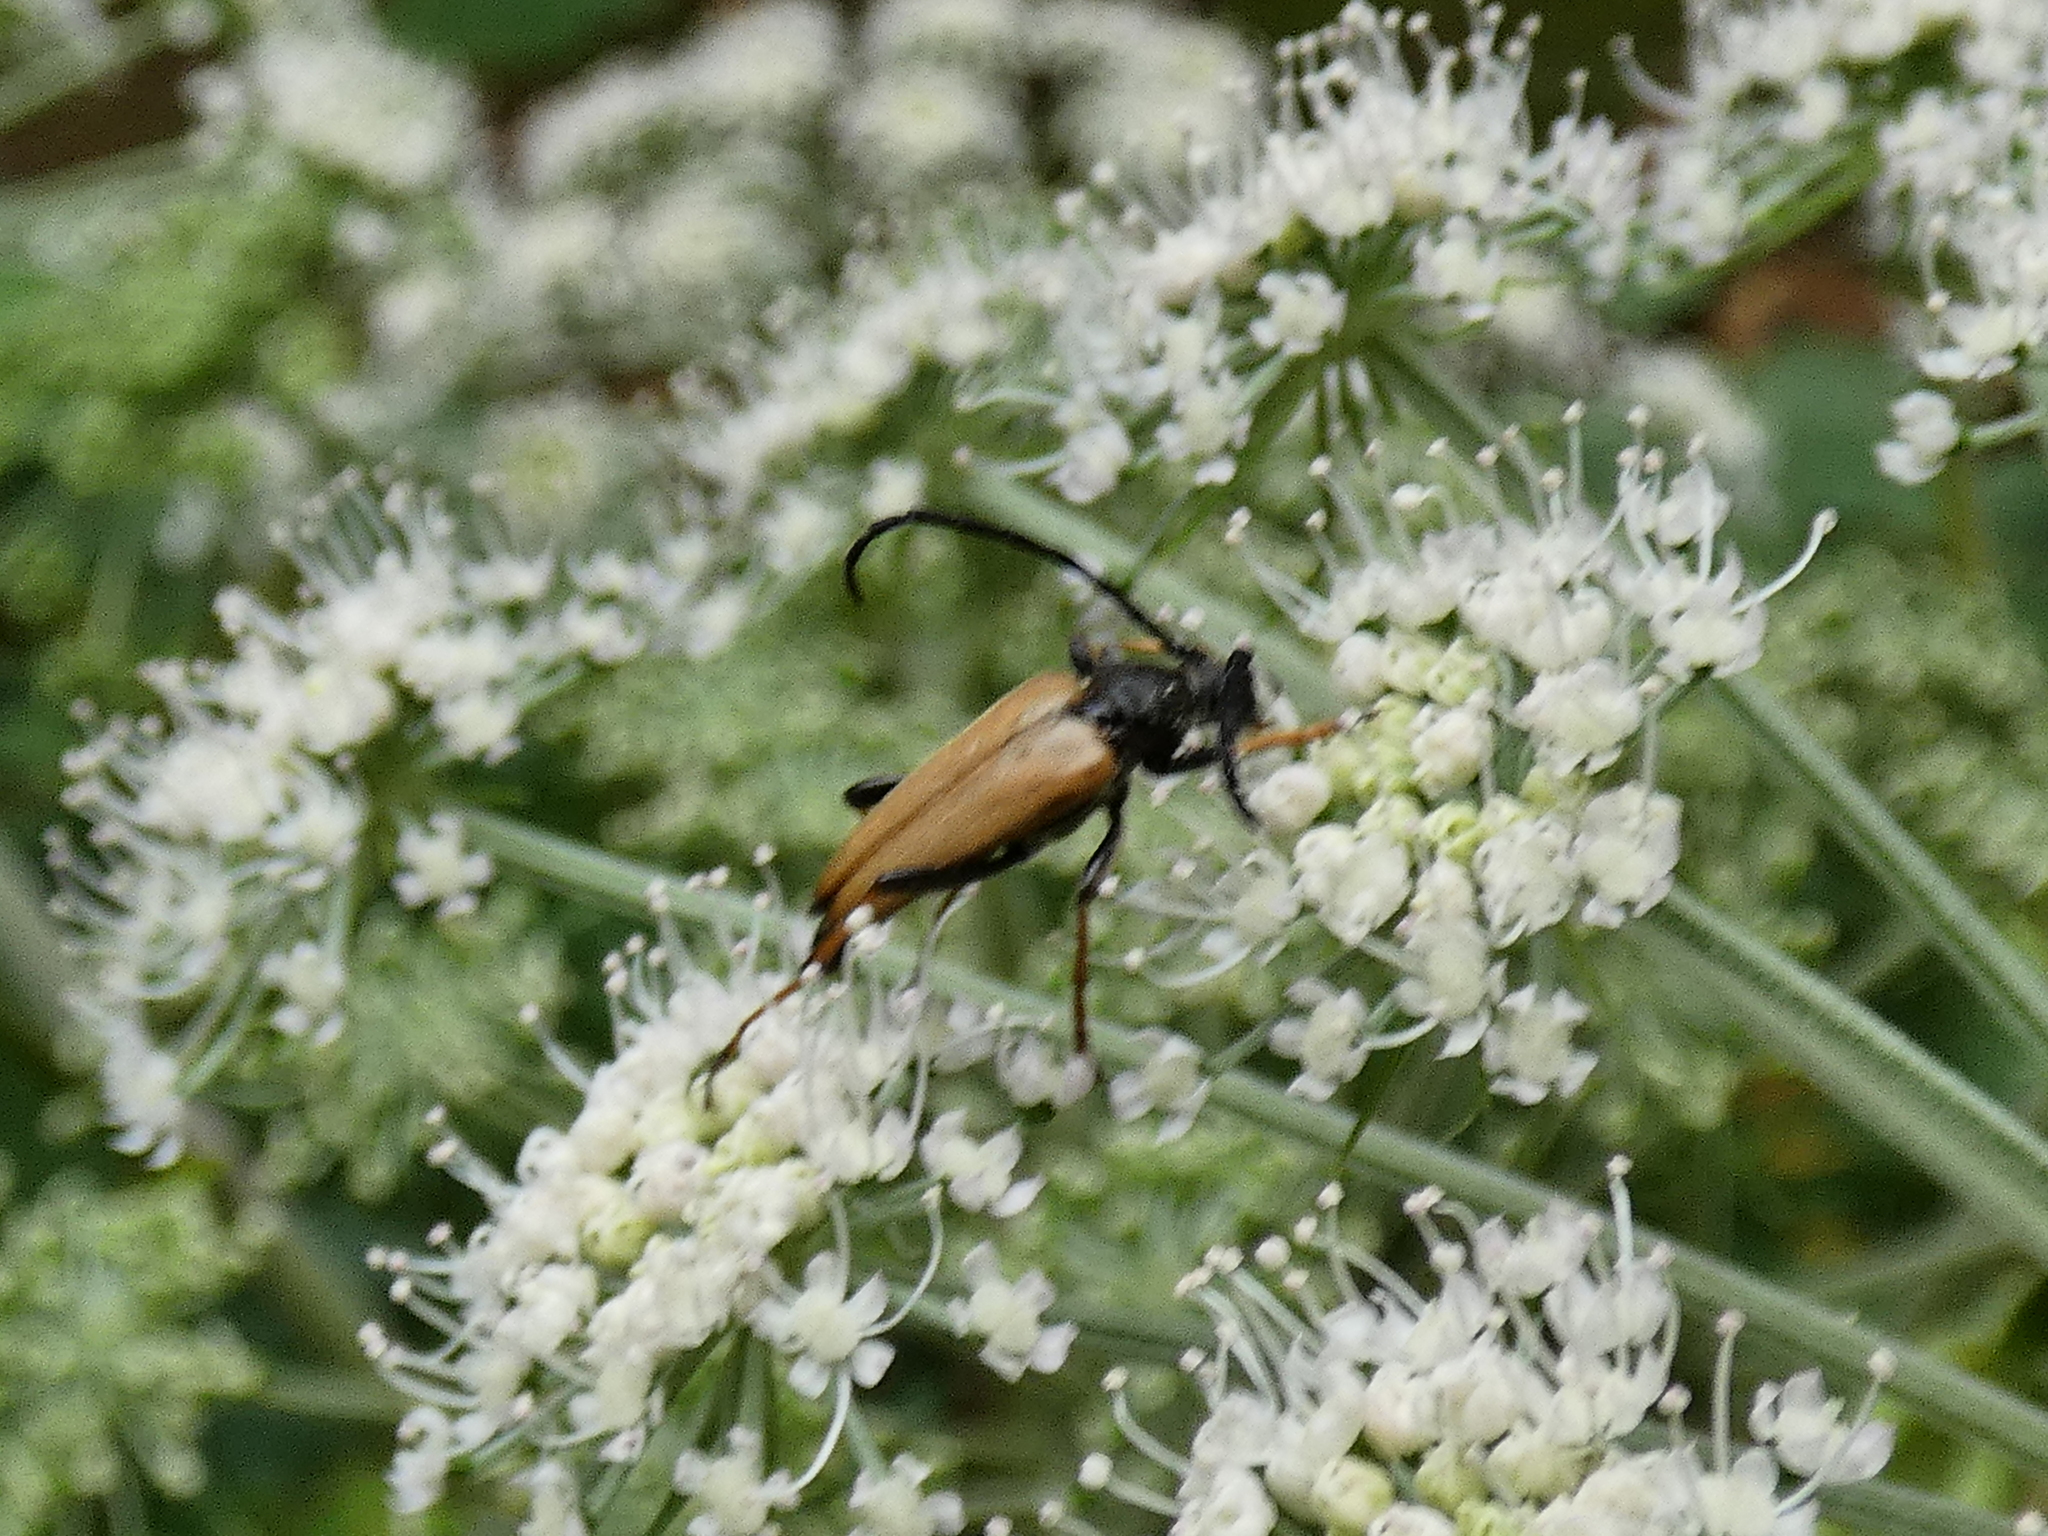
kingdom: Animalia
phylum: Arthropoda
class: Insecta
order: Coleoptera
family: Cerambycidae
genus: Stictoleptura
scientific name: Stictoleptura rubra
